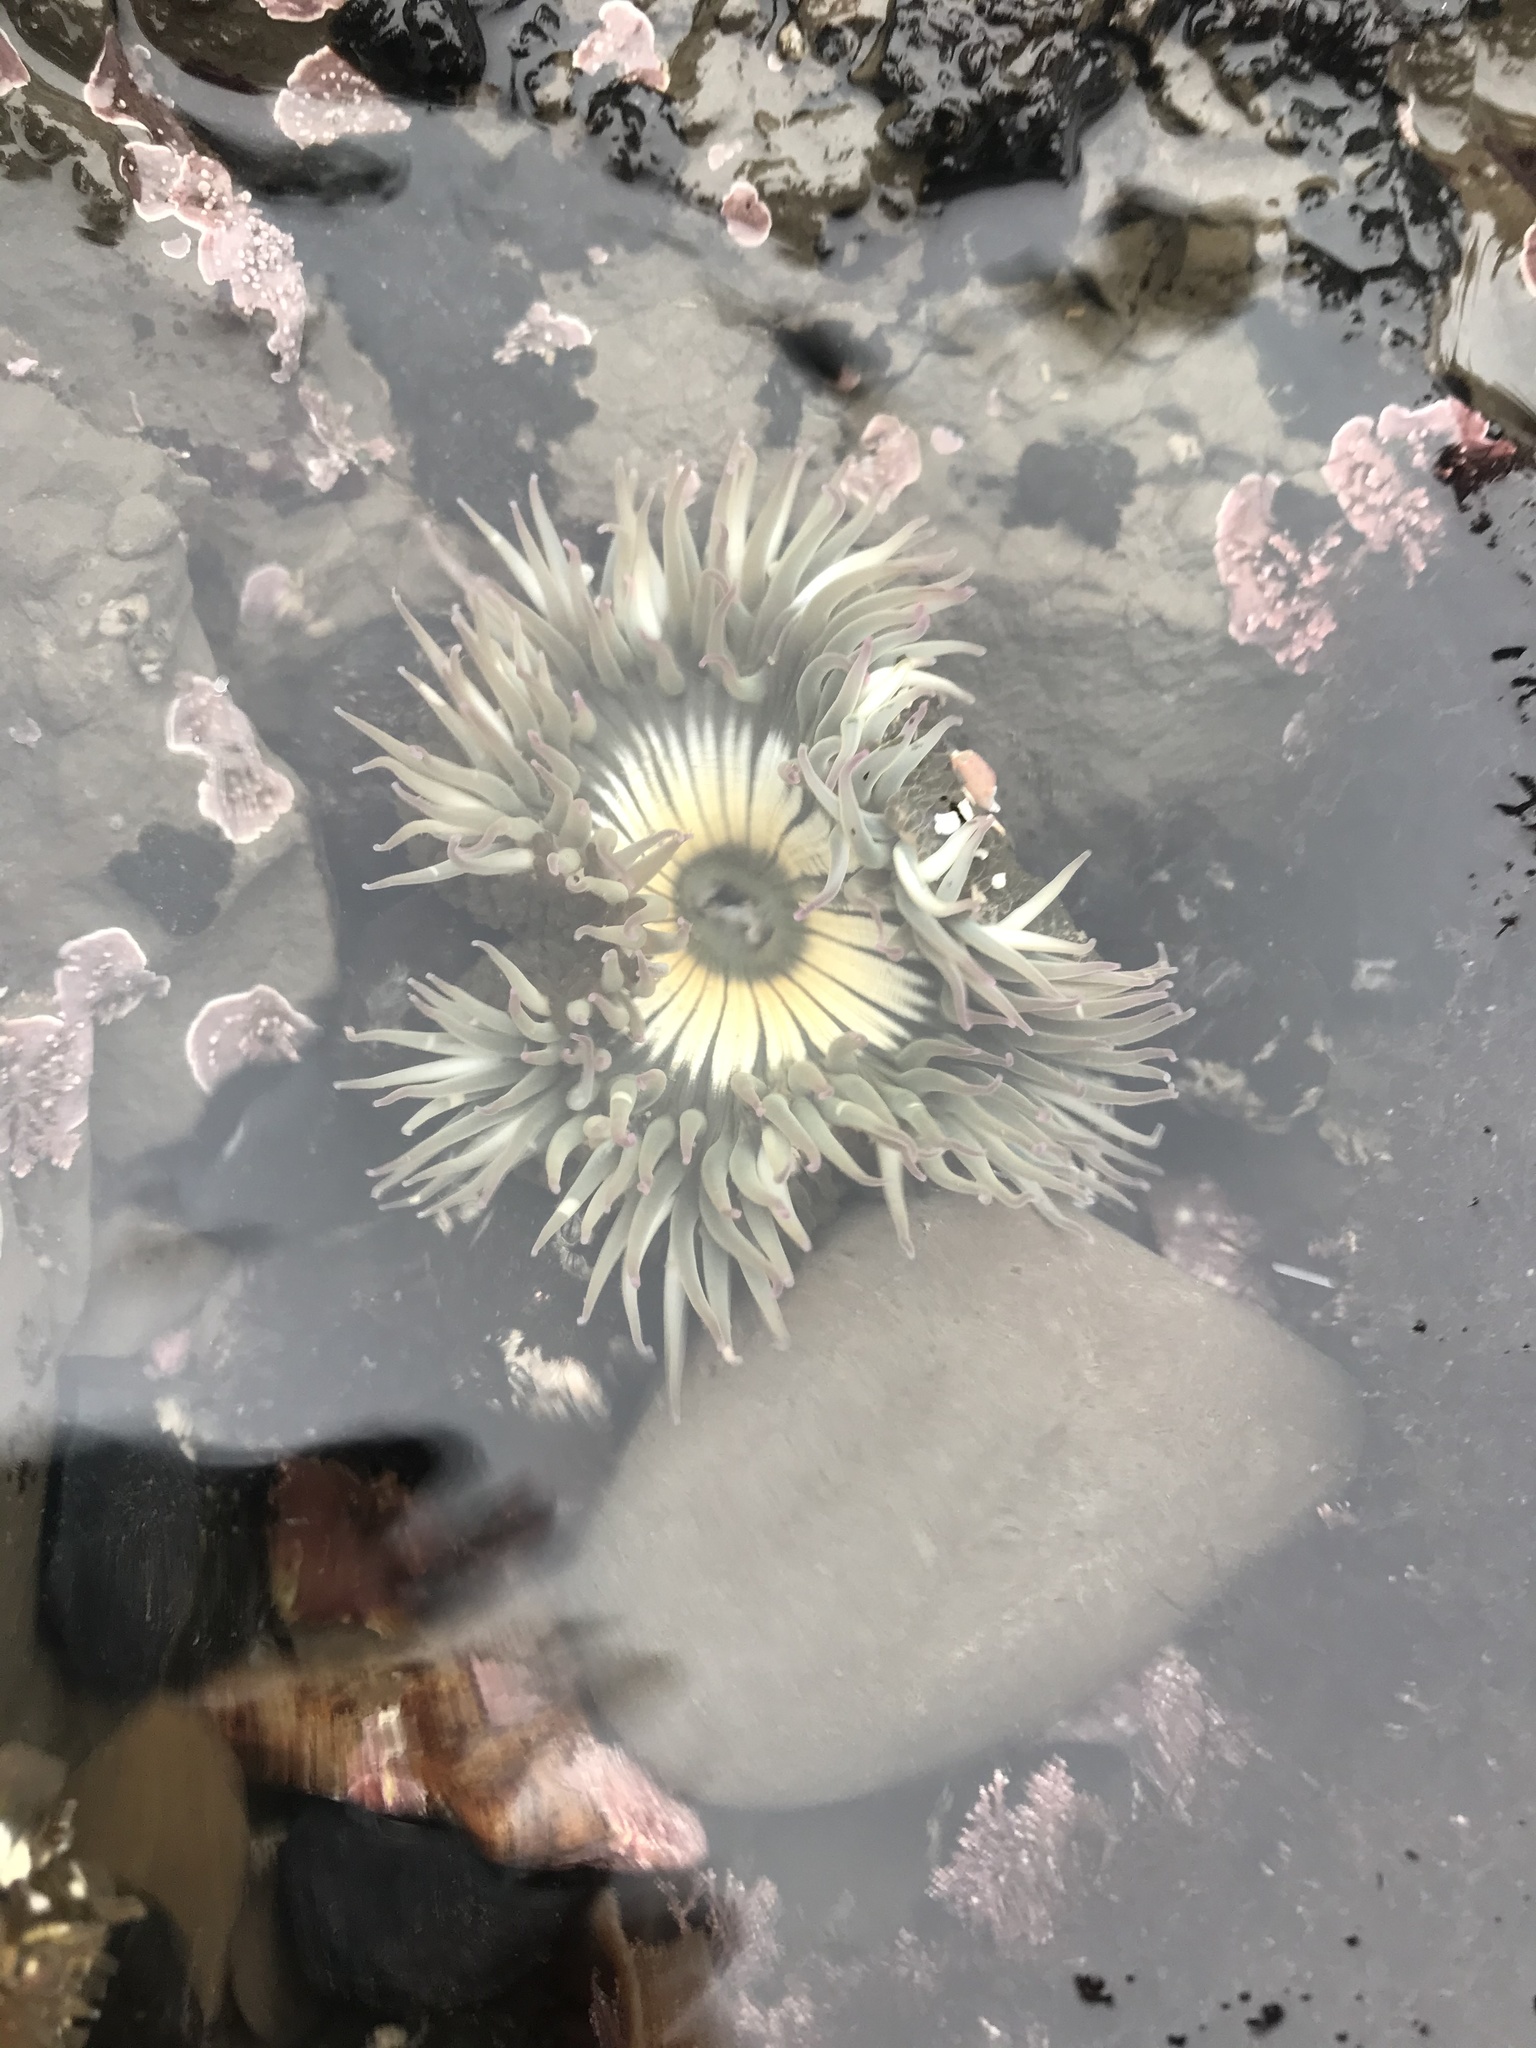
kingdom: Animalia
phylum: Cnidaria
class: Anthozoa
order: Actiniaria
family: Actiniidae
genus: Anthopleura
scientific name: Anthopleura sola
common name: Sun anemone
